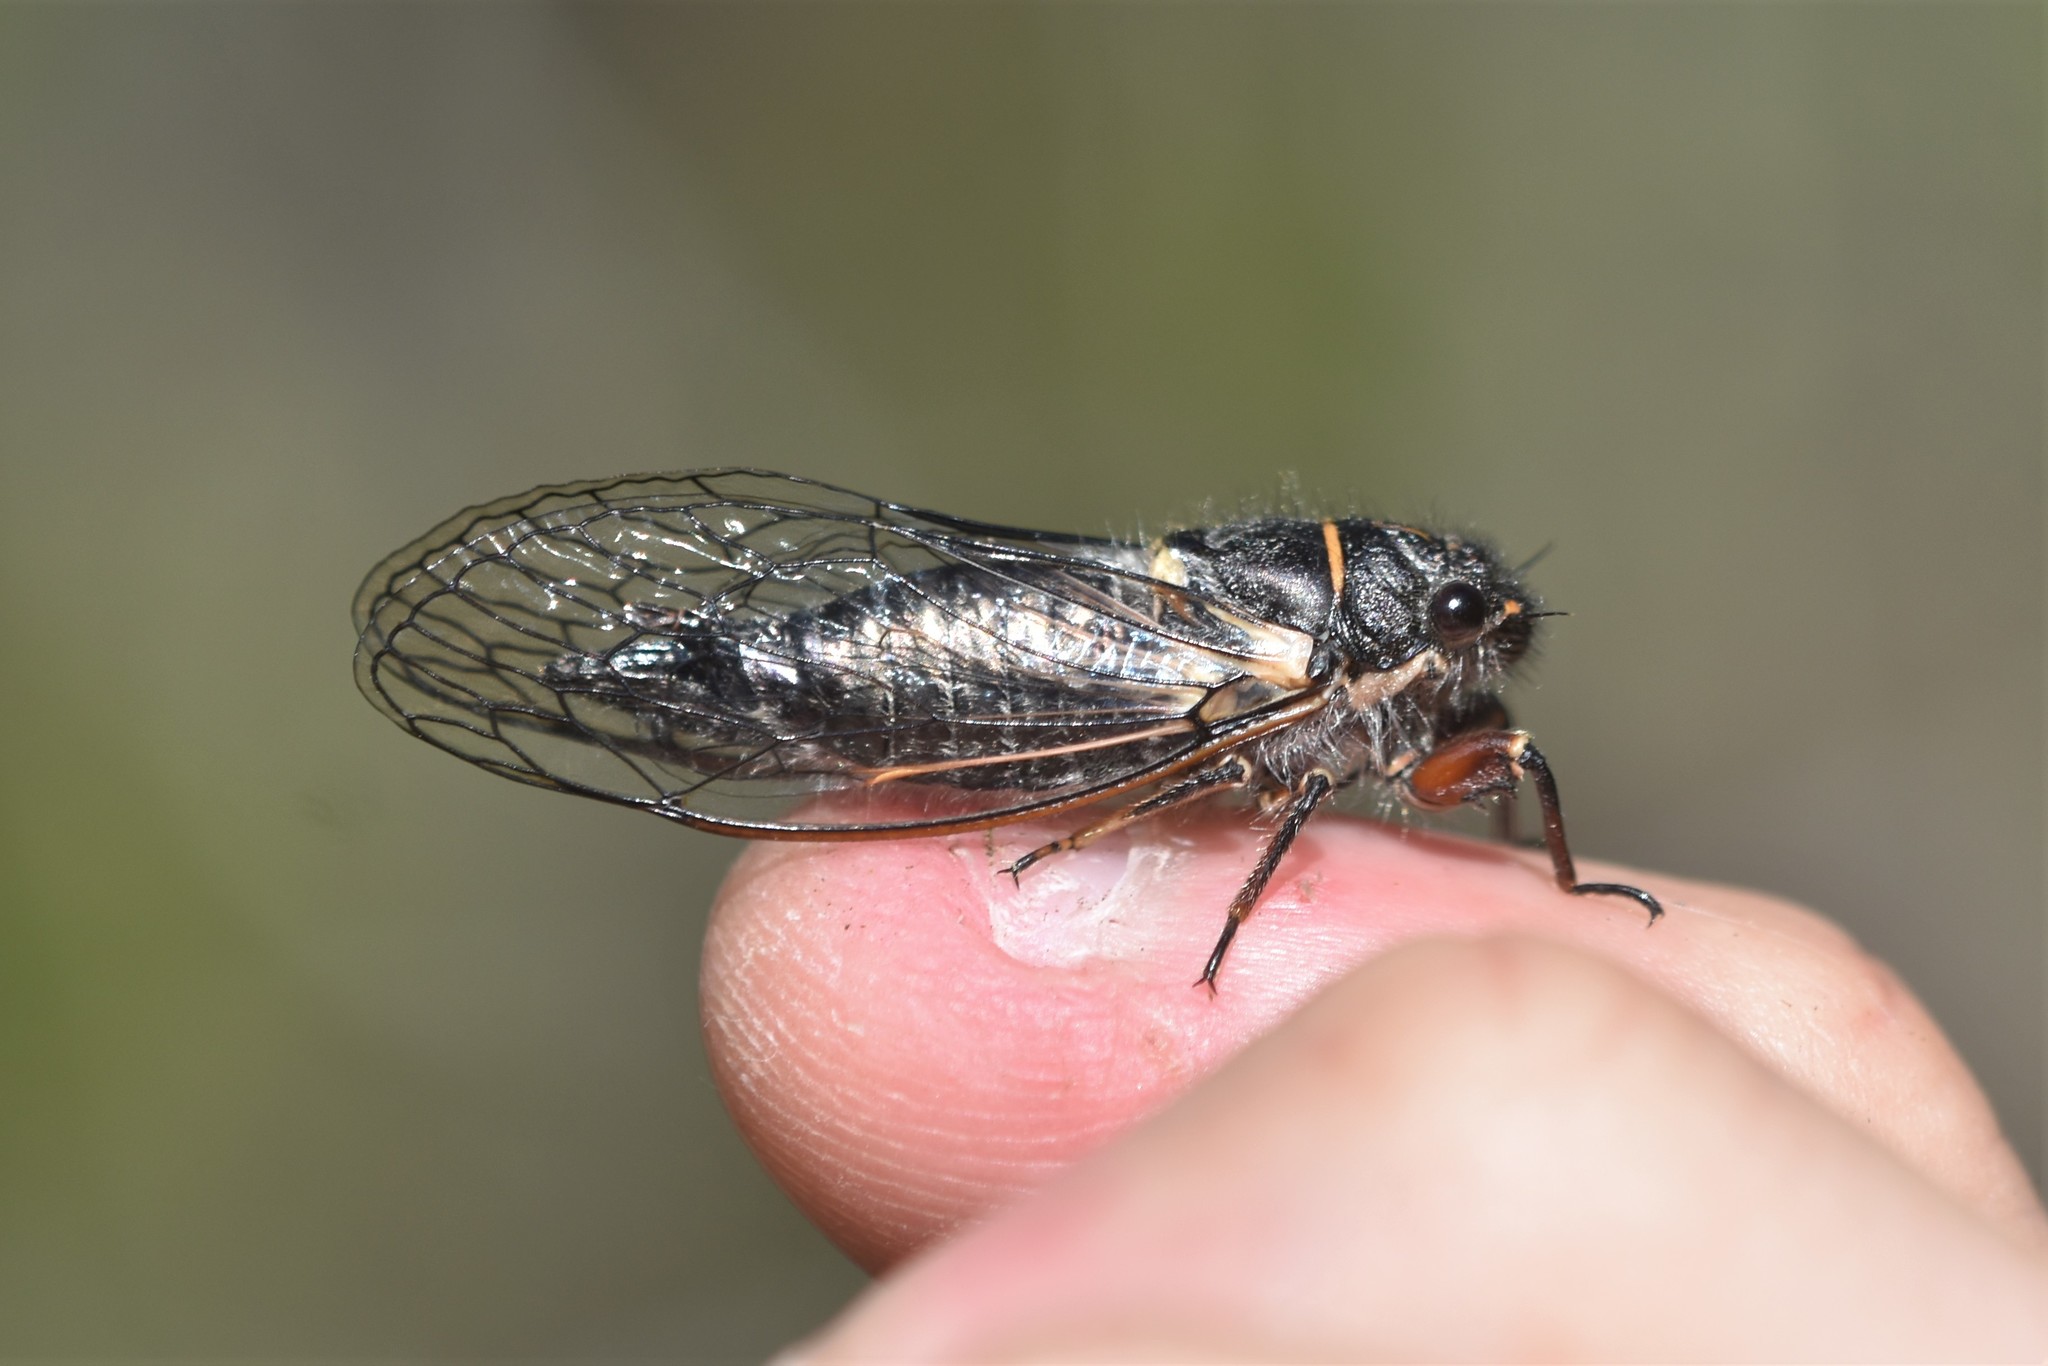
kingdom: Animalia
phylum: Arthropoda
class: Insecta
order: Hemiptera
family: Cicadidae
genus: Platypedia
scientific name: Platypedia areolata
